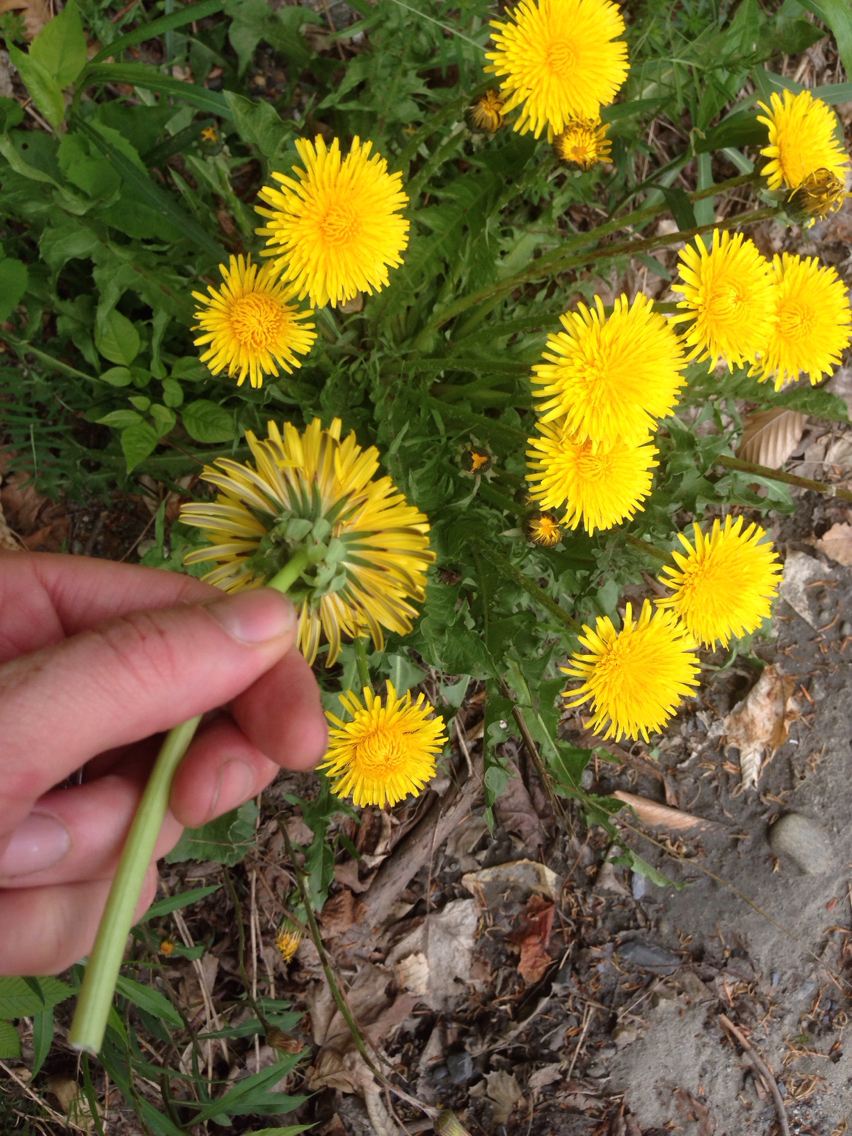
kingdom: Plantae
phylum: Tracheophyta
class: Magnoliopsida
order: Asterales
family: Asteraceae
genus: Taraxacum
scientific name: Taraxacum officinale
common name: Common dandelion
